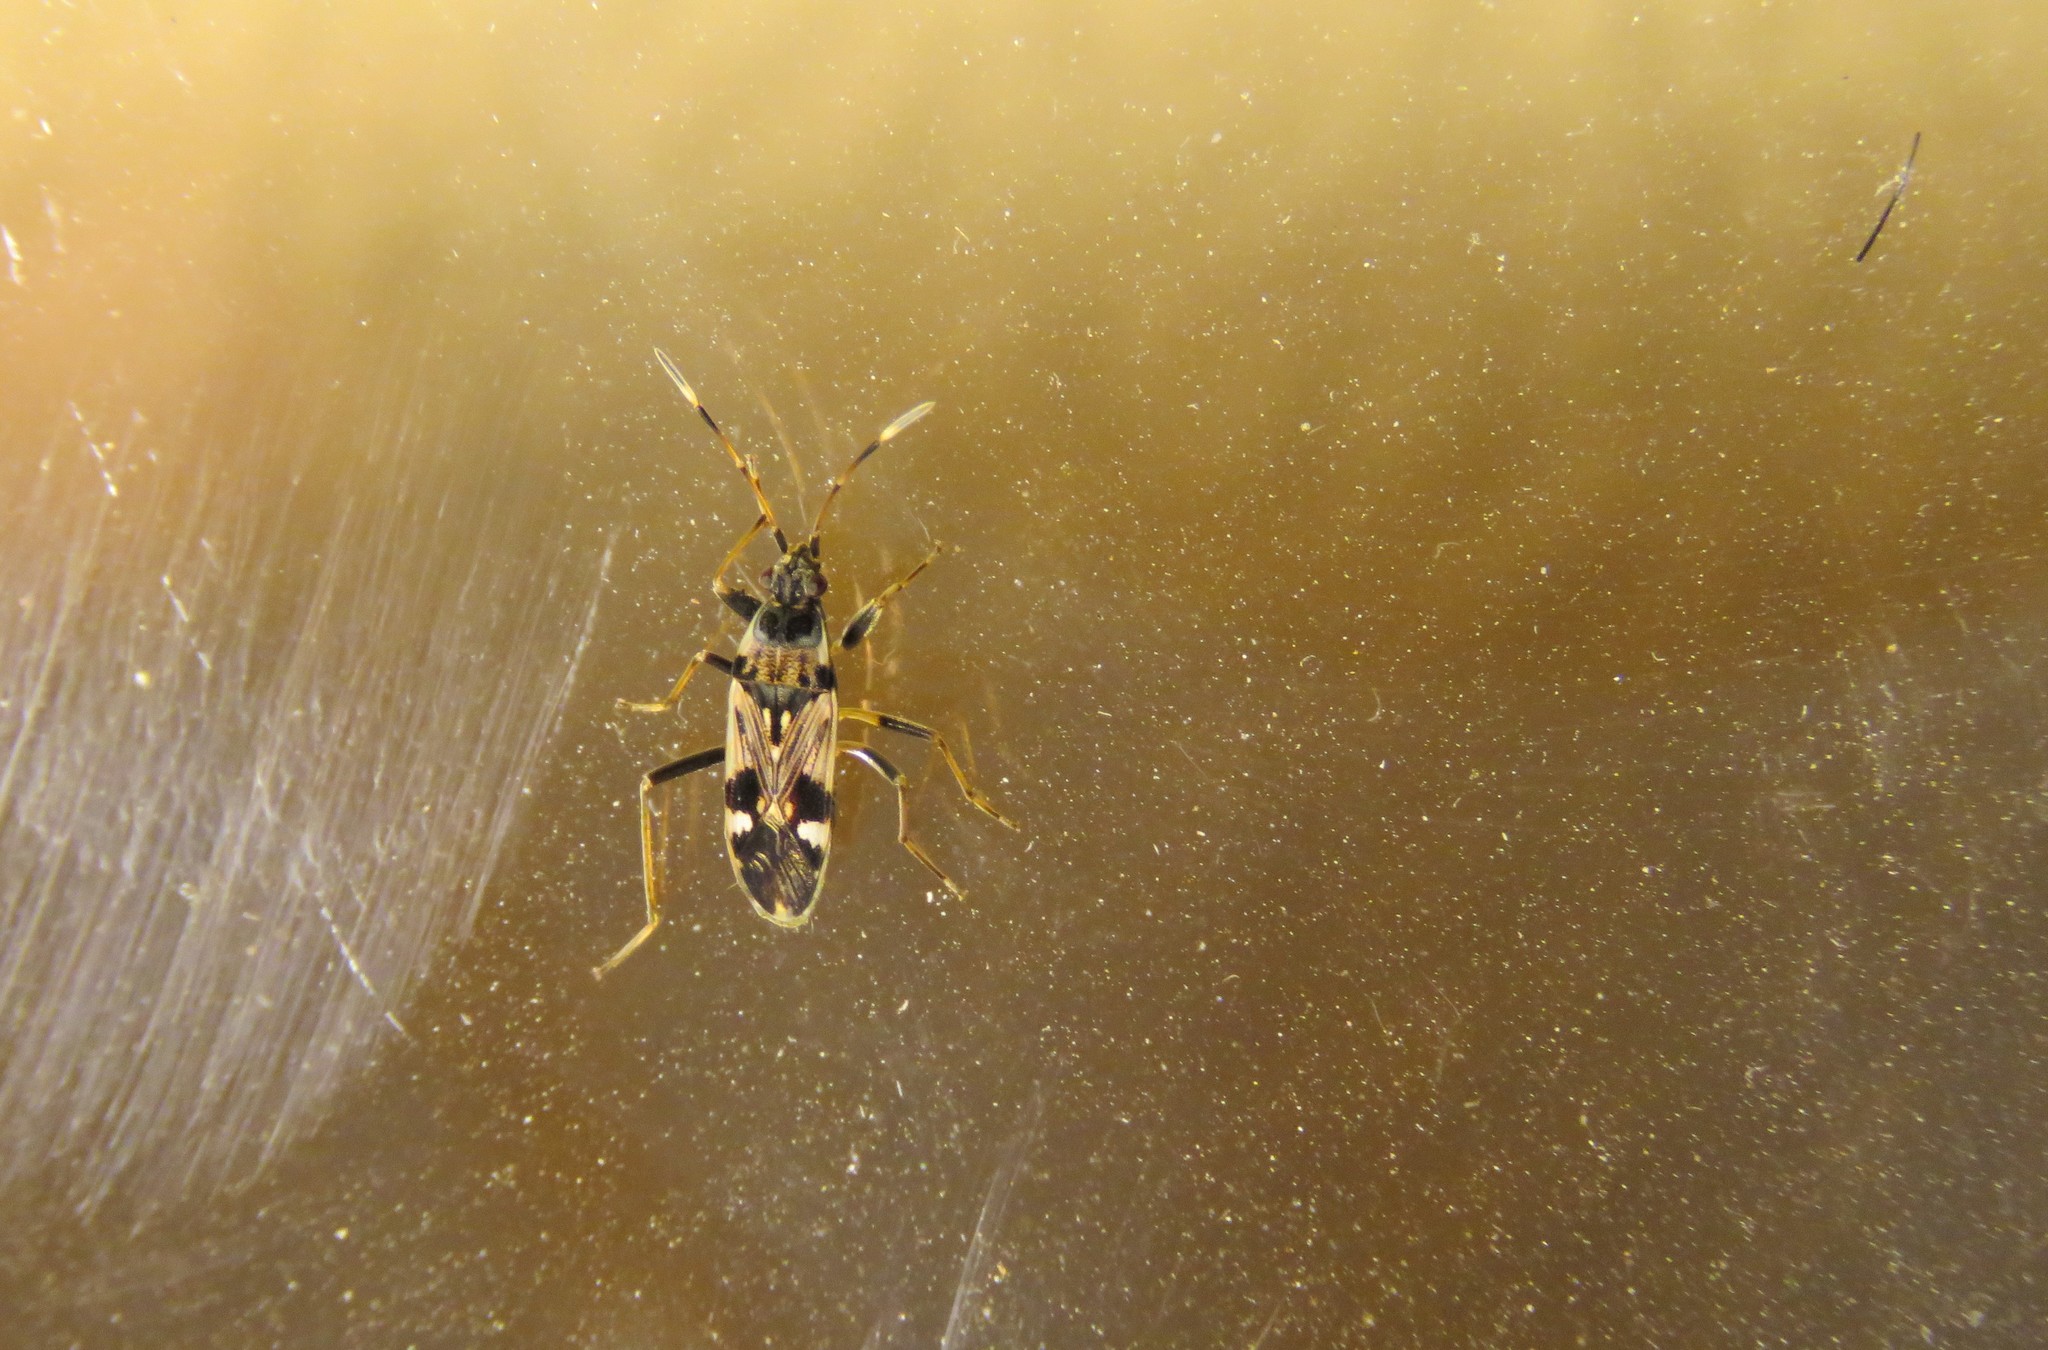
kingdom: Animalia
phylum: Arthropoda
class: Insecta
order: Hemiptera
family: Rhyparochromidae
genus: Beosus
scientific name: Beosus maritimus
